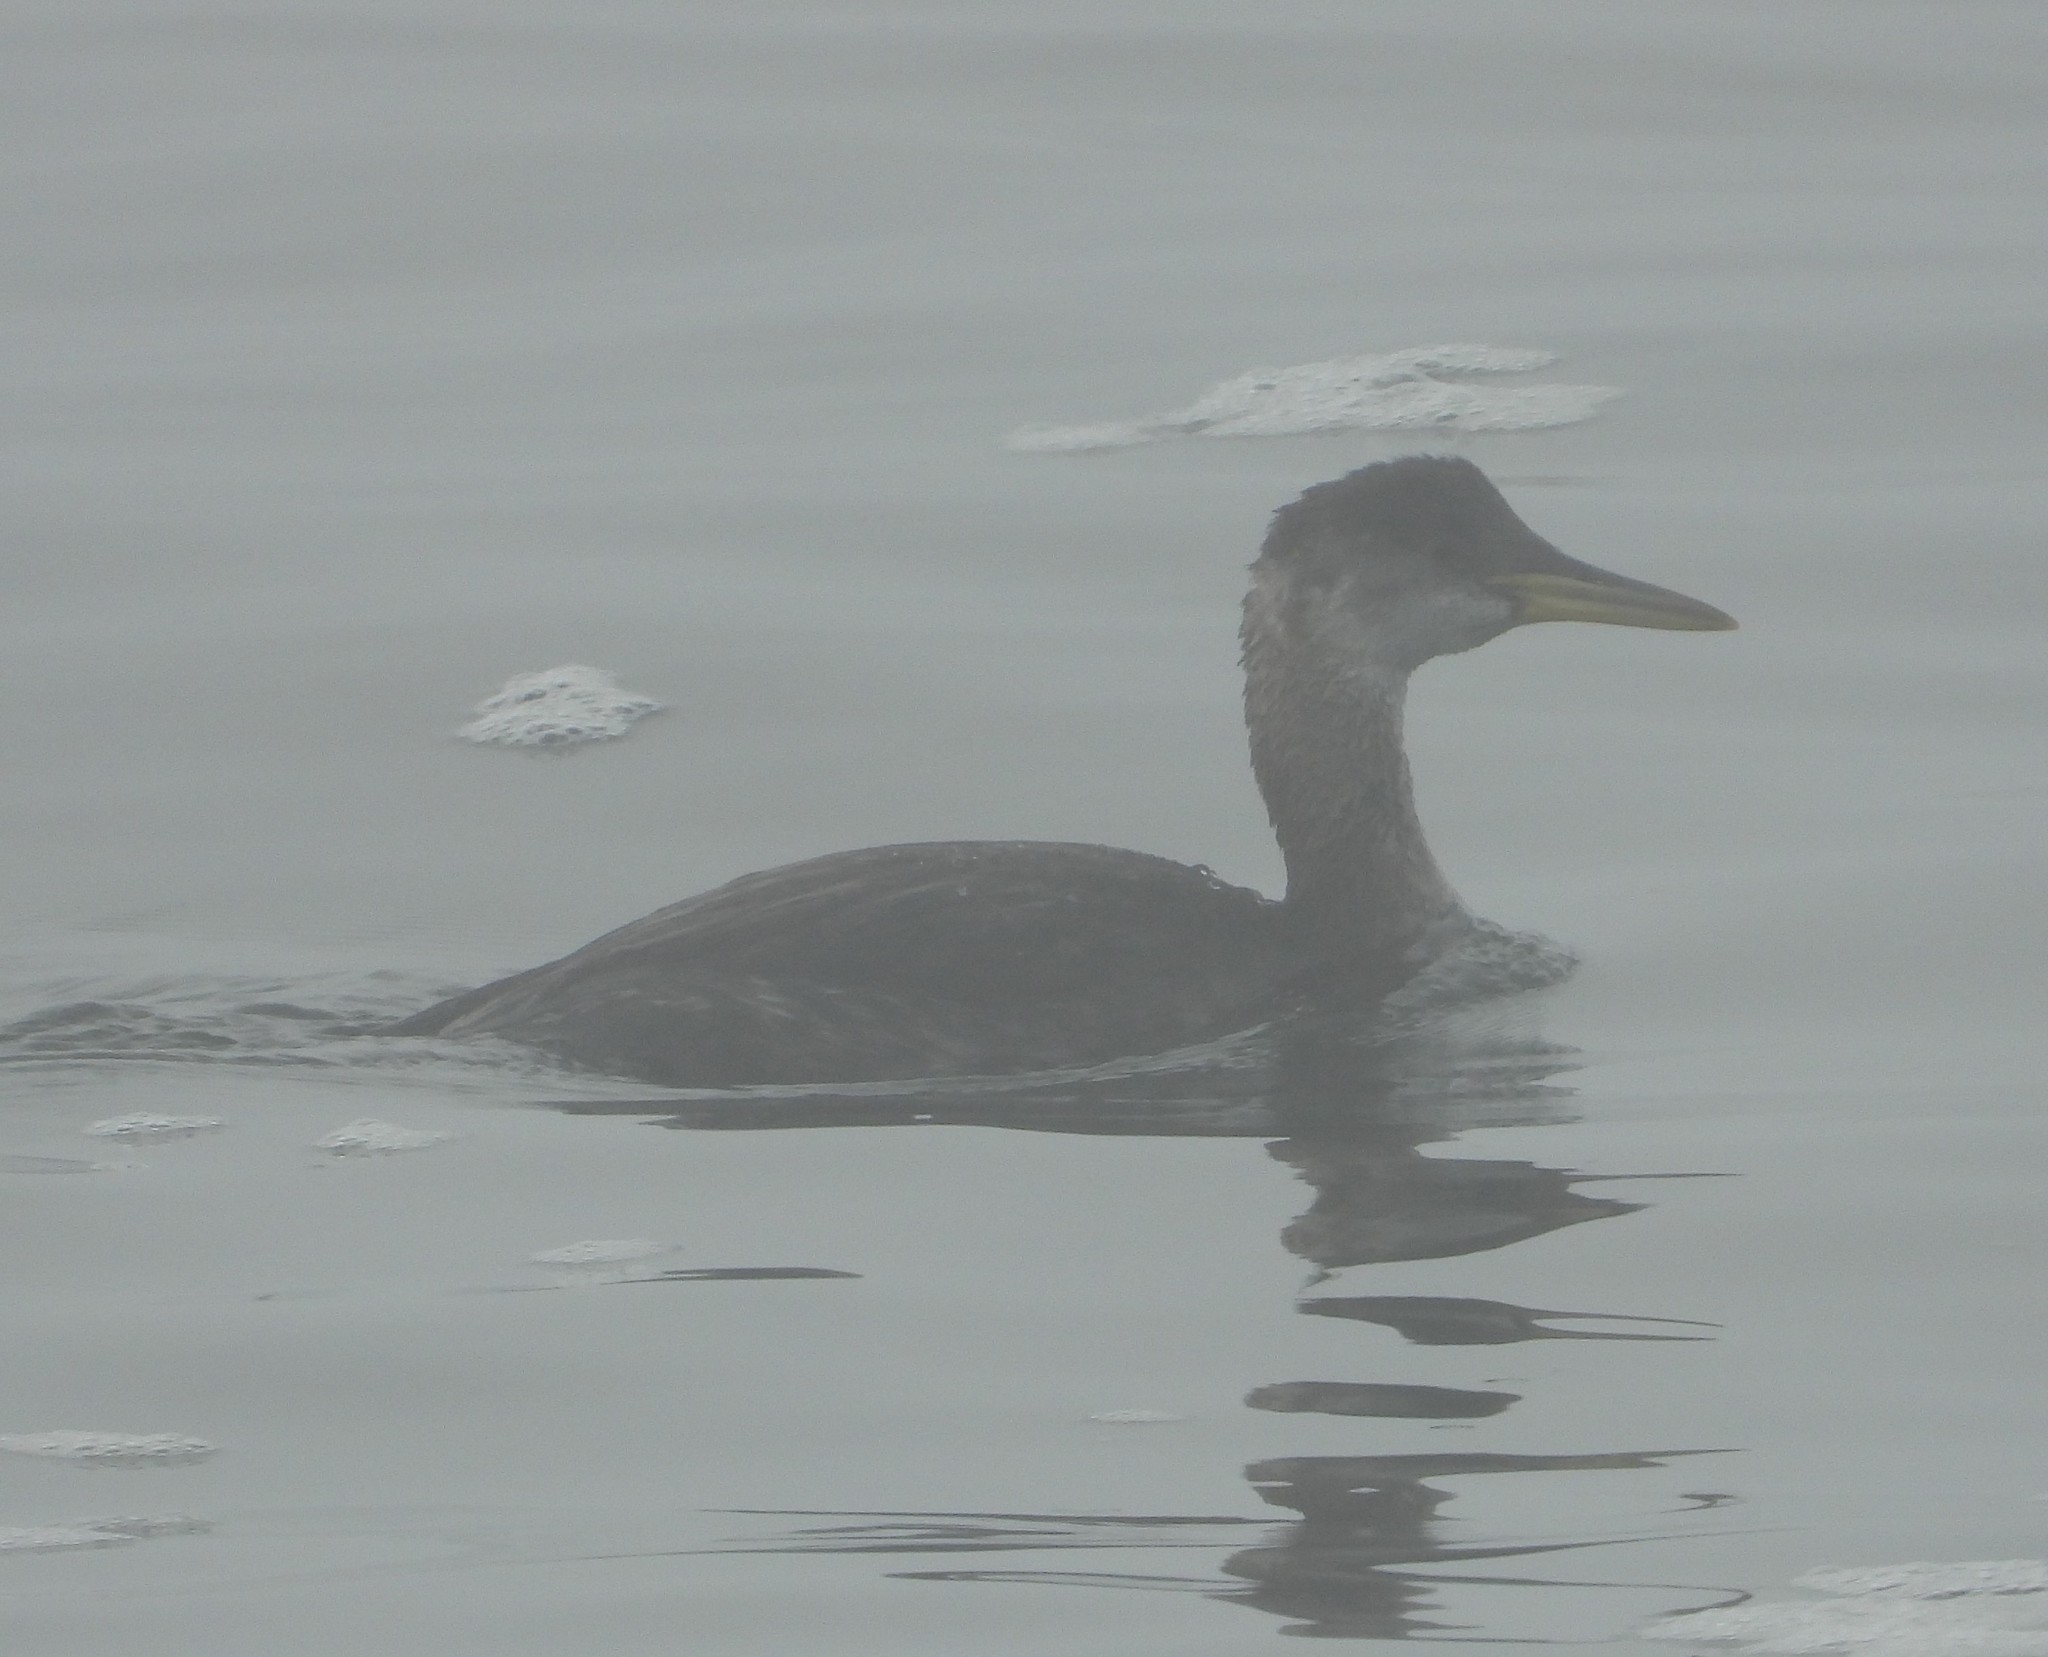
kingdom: Animalia
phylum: Chordata
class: Aves
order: Podicipediformes
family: Podicipedidae
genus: Podiceps
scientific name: Podiceps grisegena
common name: Red-necked grebe
